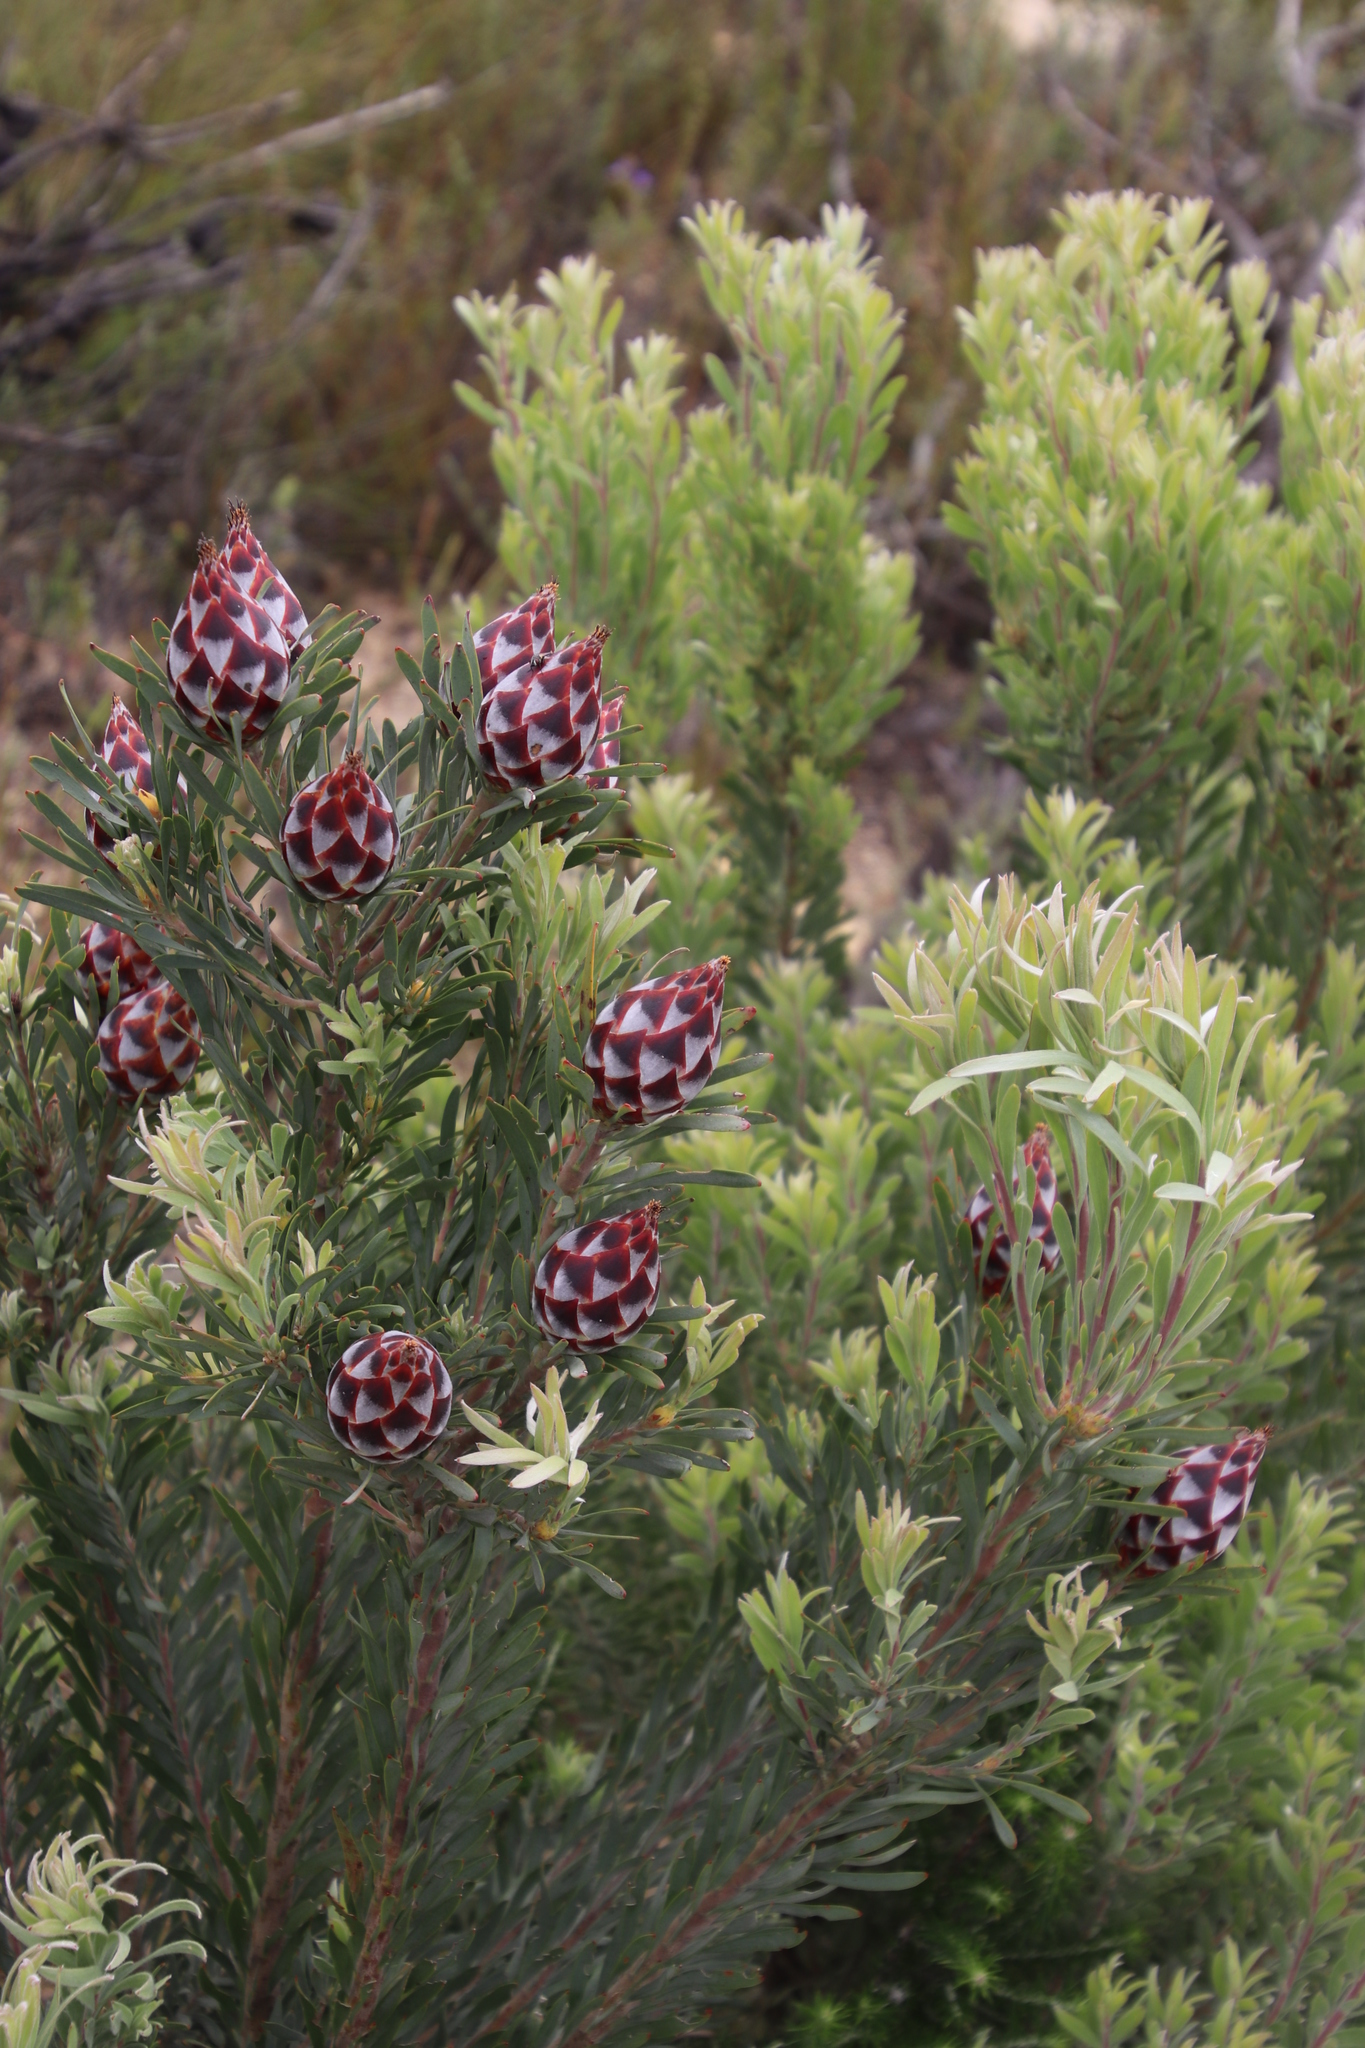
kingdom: Plantae
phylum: Tracheophyta
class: Magnoliopsida
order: Proteales
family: Proteaceae
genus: Leucadendron
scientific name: Leucadendron rubrum
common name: Spinning top
